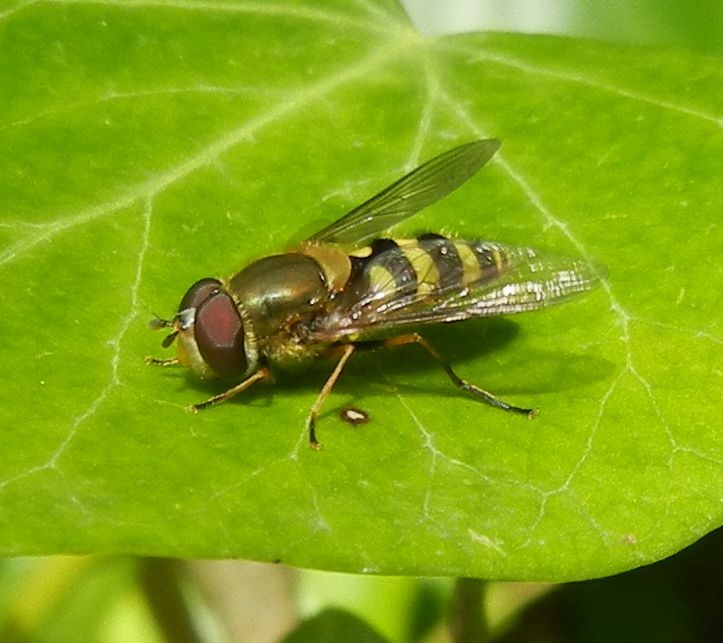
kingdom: Animalia
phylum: Arthropoda
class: Insecta
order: Diptera
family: Syrphidae
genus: Syrphus
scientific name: Syrphus
